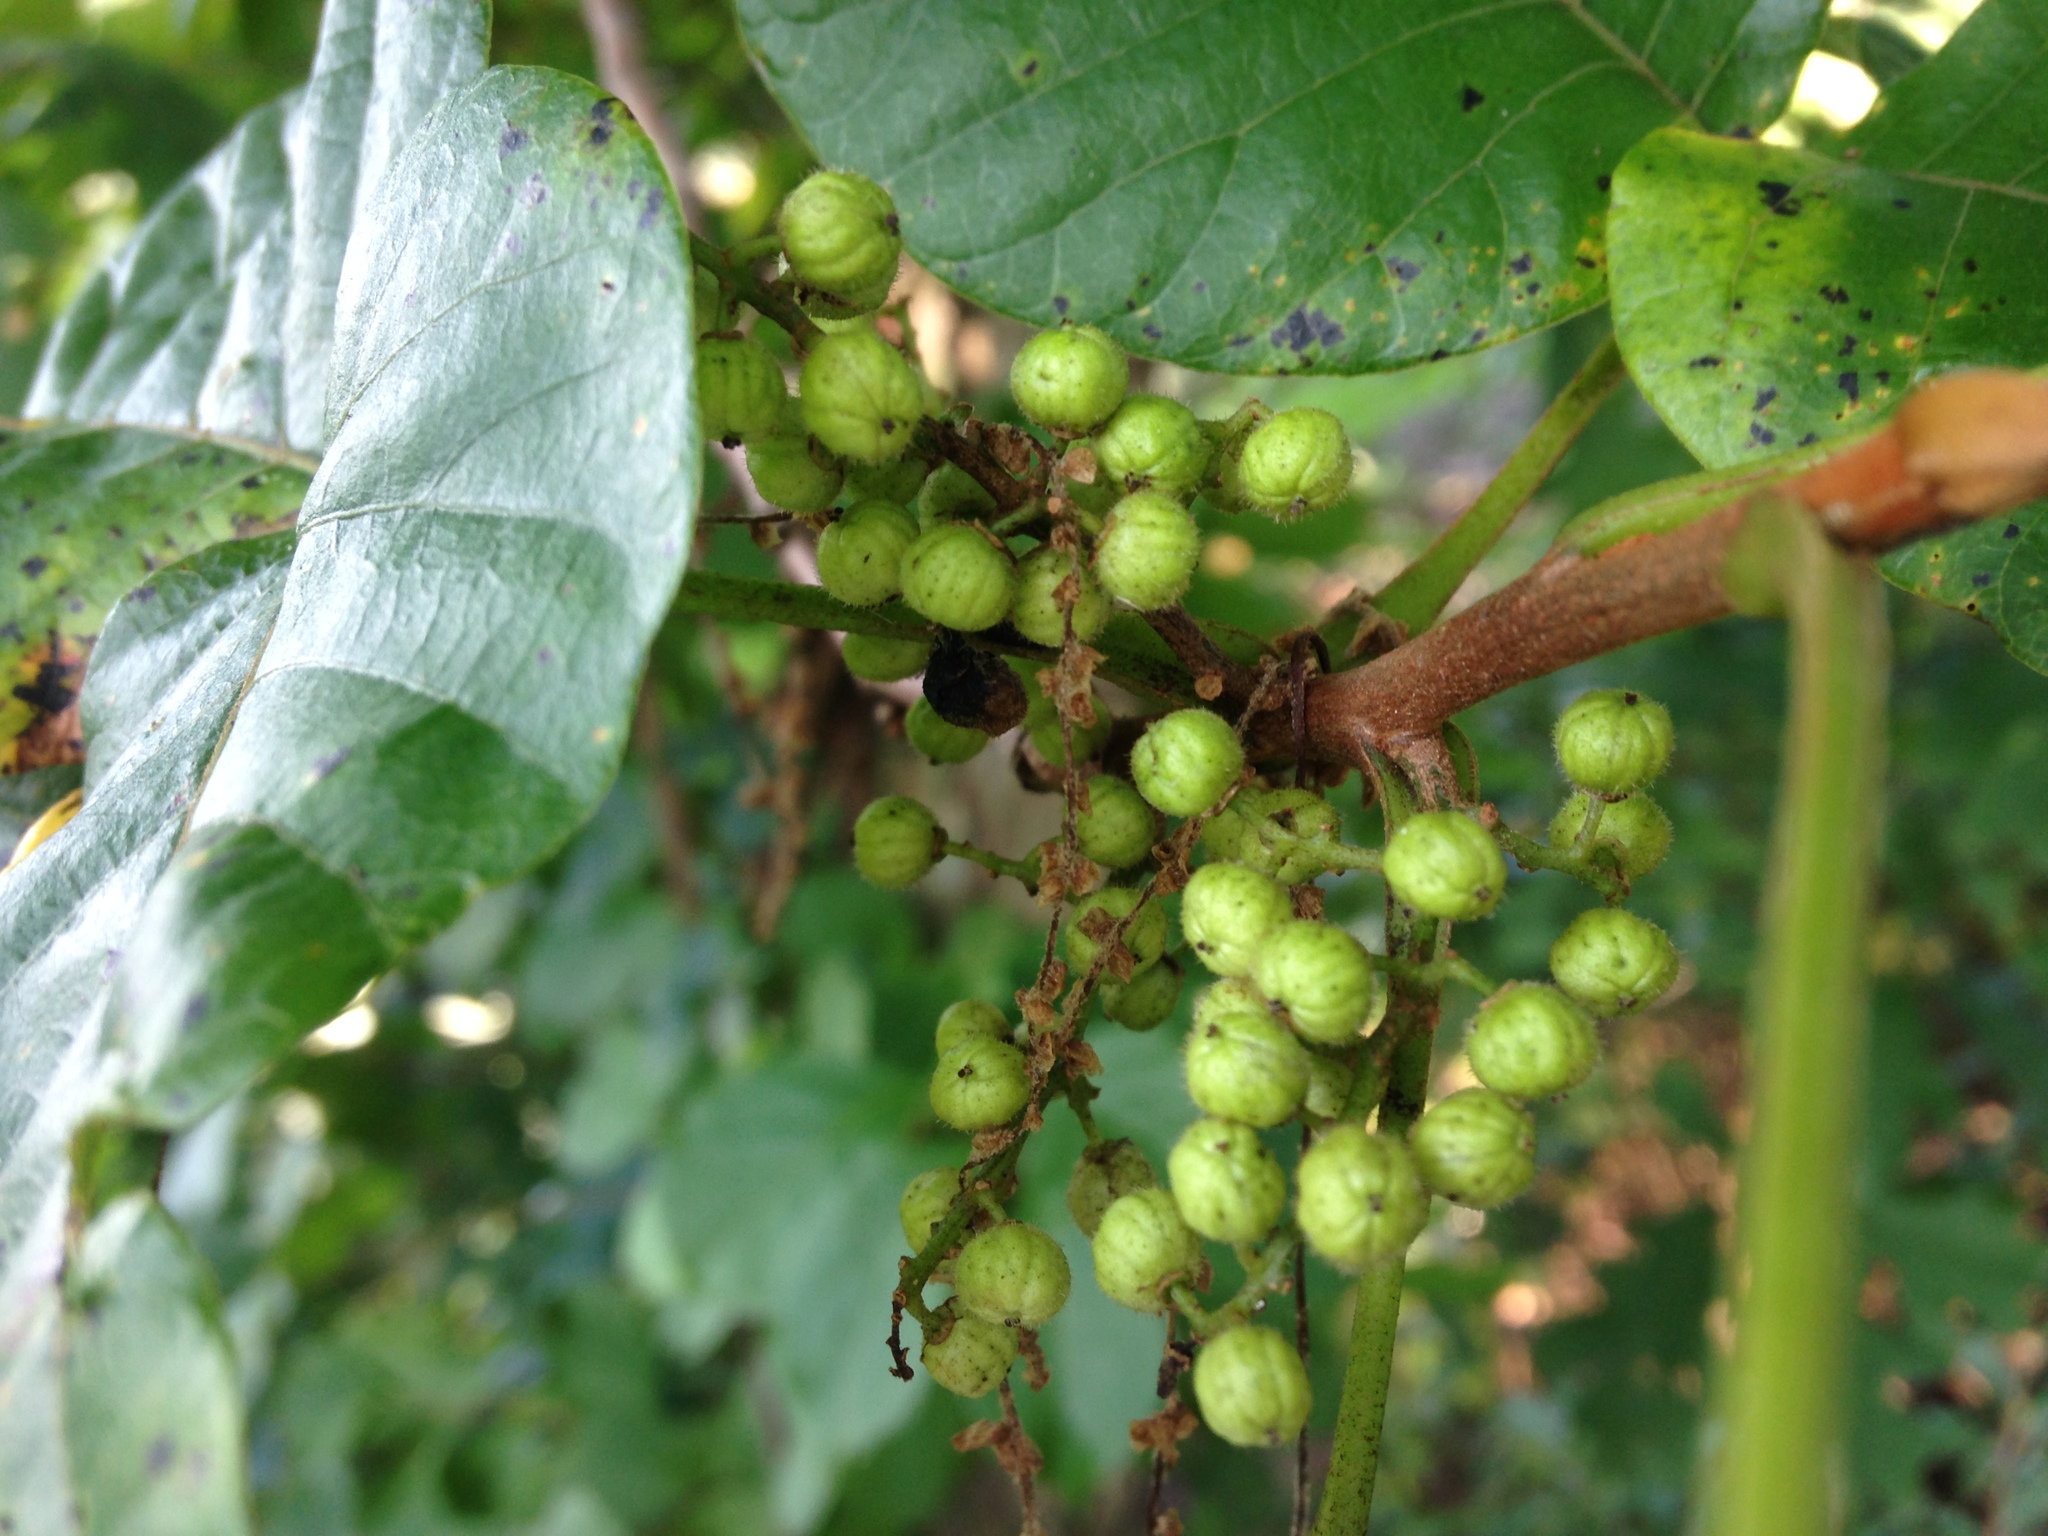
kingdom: Plantae
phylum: Tracheophyta
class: Magnoliopsida
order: Sapindales
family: Anacardiaceae
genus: Toxicodendron
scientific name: Toxicodendron radicans
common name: Poison ivy
